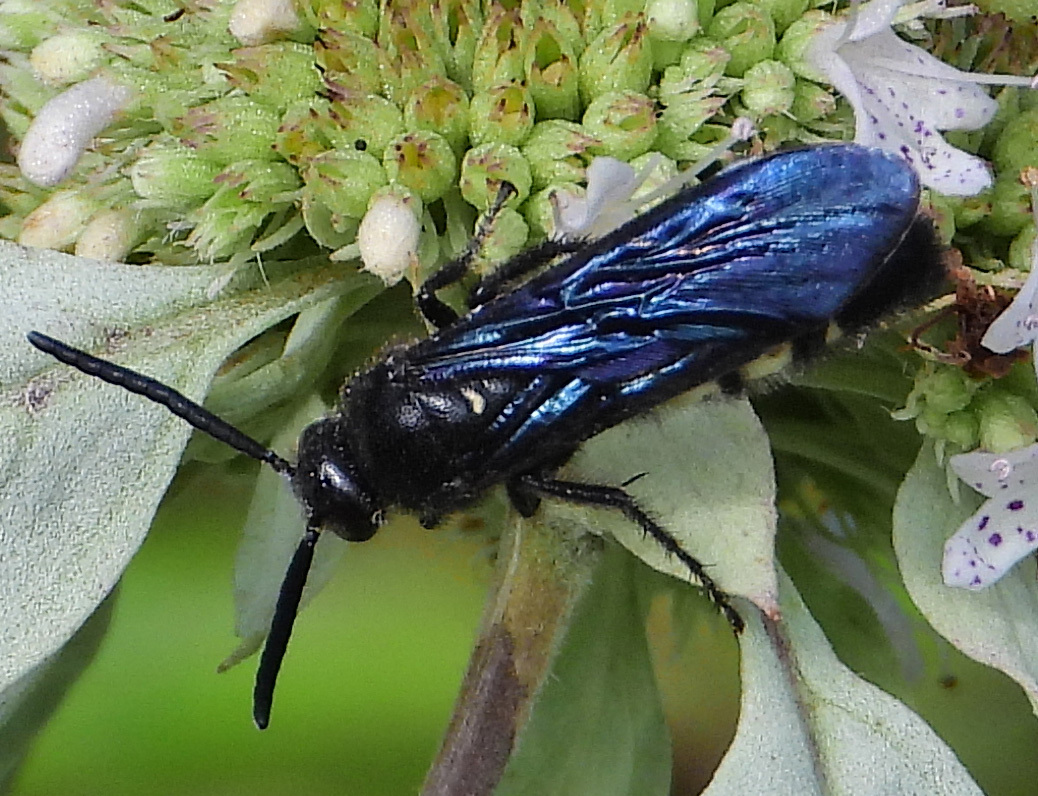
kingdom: Animalia
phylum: Arthropoda
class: Insecta
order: Hymenoptera
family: Scoliidae
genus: Scolia
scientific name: Scolia bicincta
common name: Double-banded scoliid wasp
